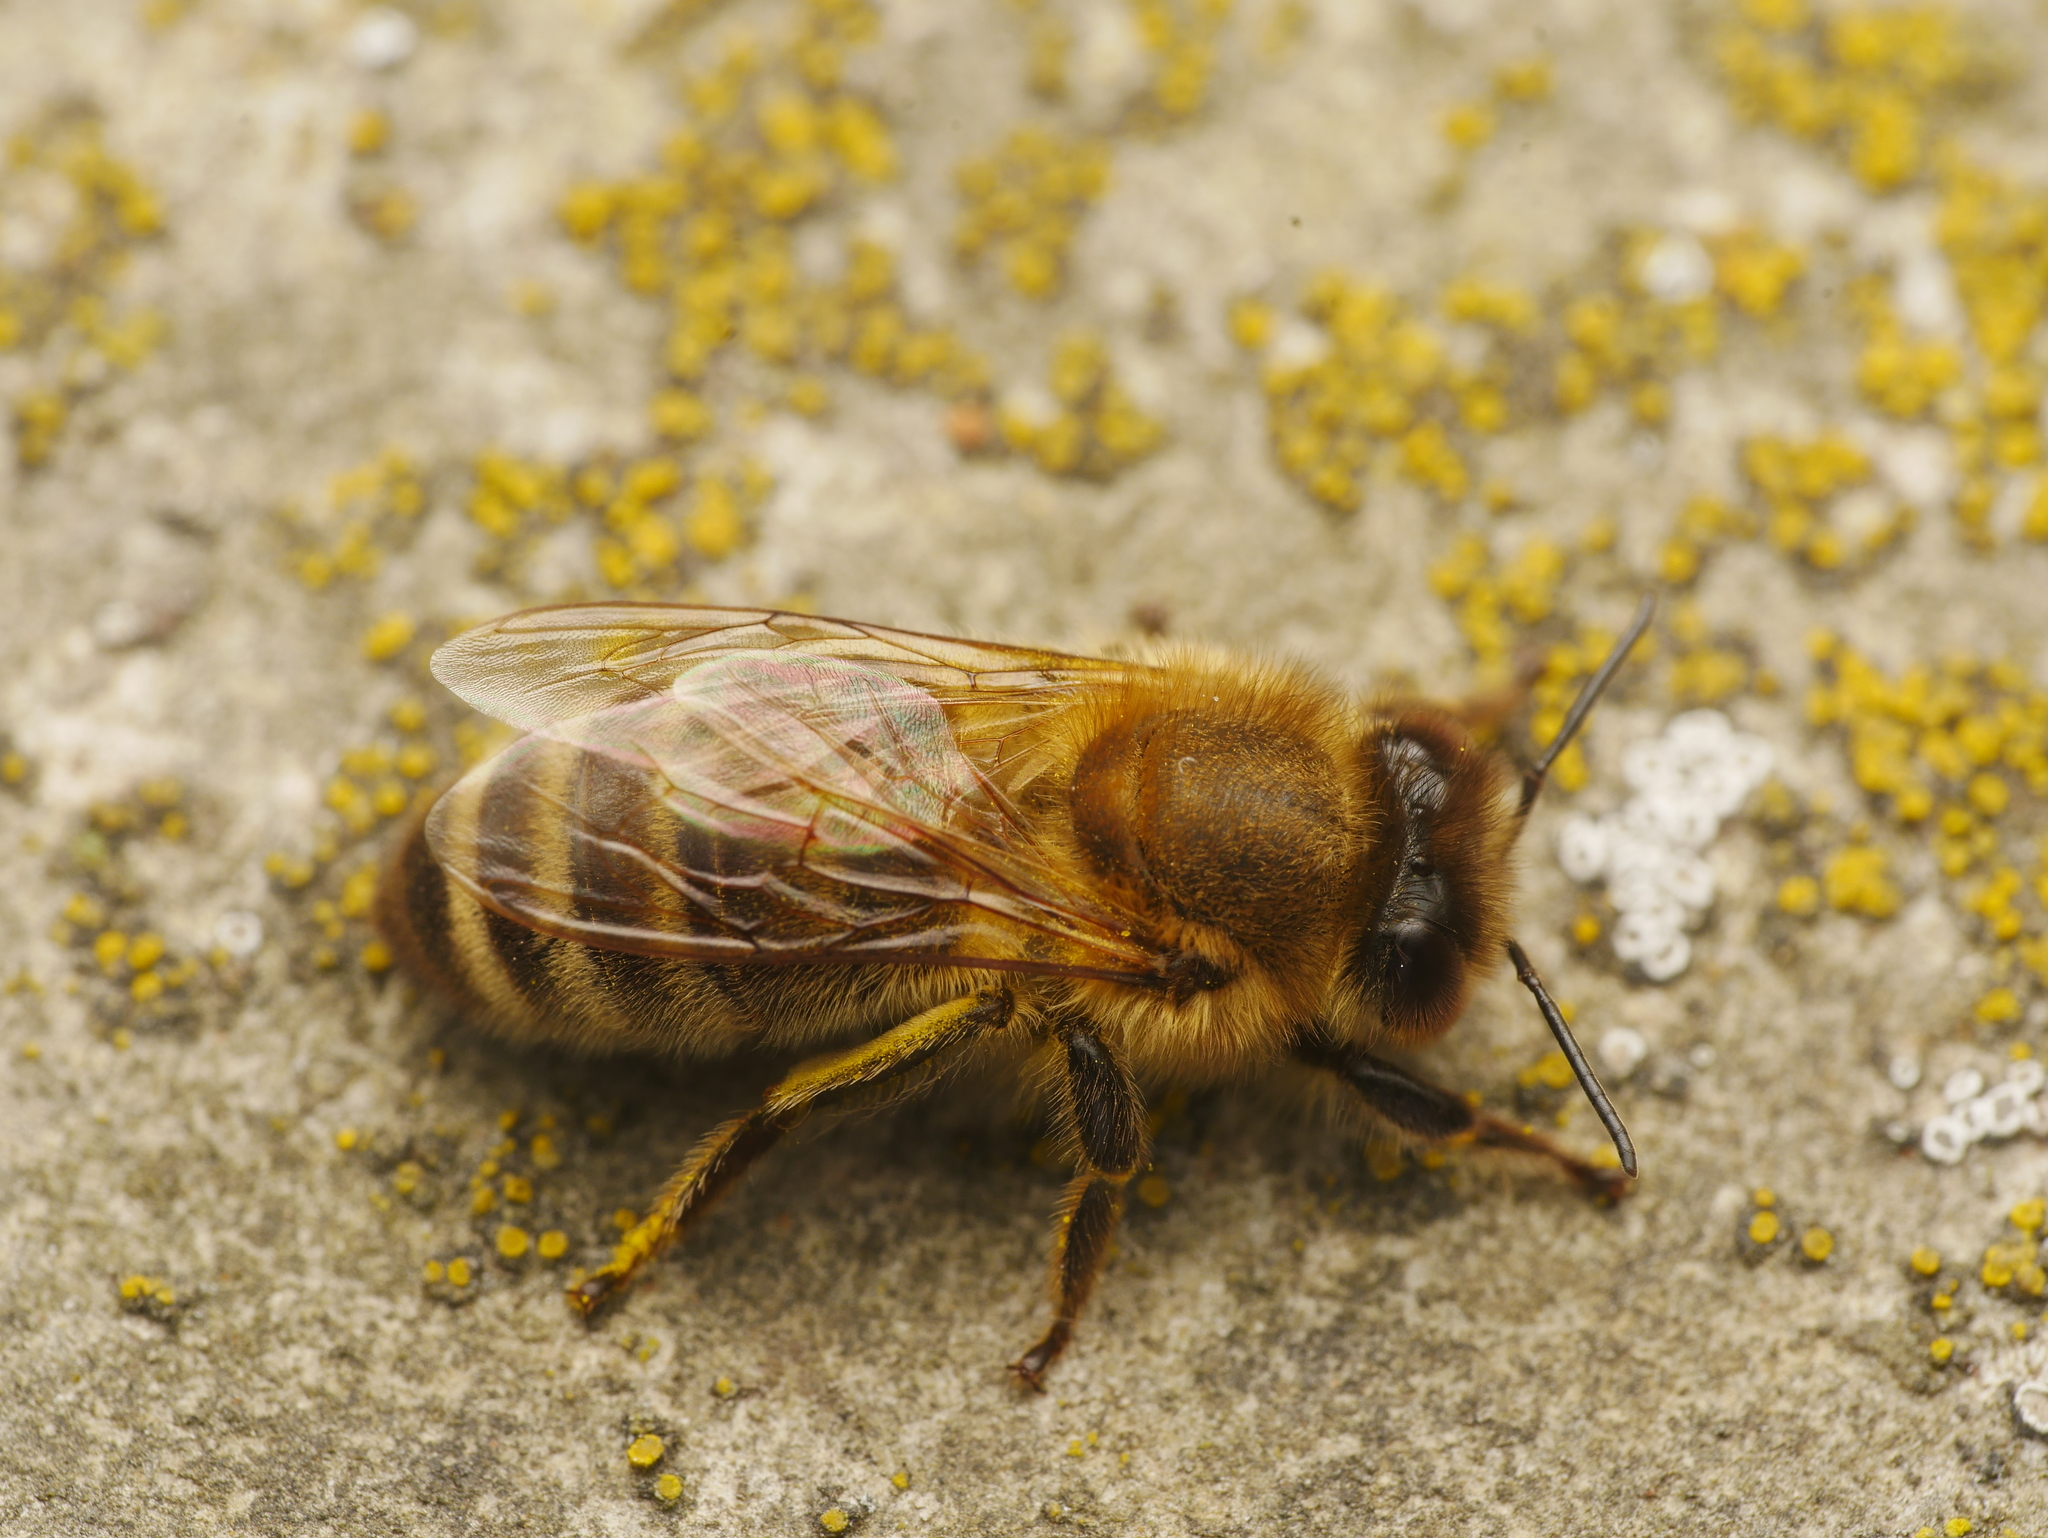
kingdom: Animalia
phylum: Arthropoda
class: Insecta
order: Hymenoptera
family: Apidae
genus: Apis
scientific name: Apis mellifera
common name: Honey bee
